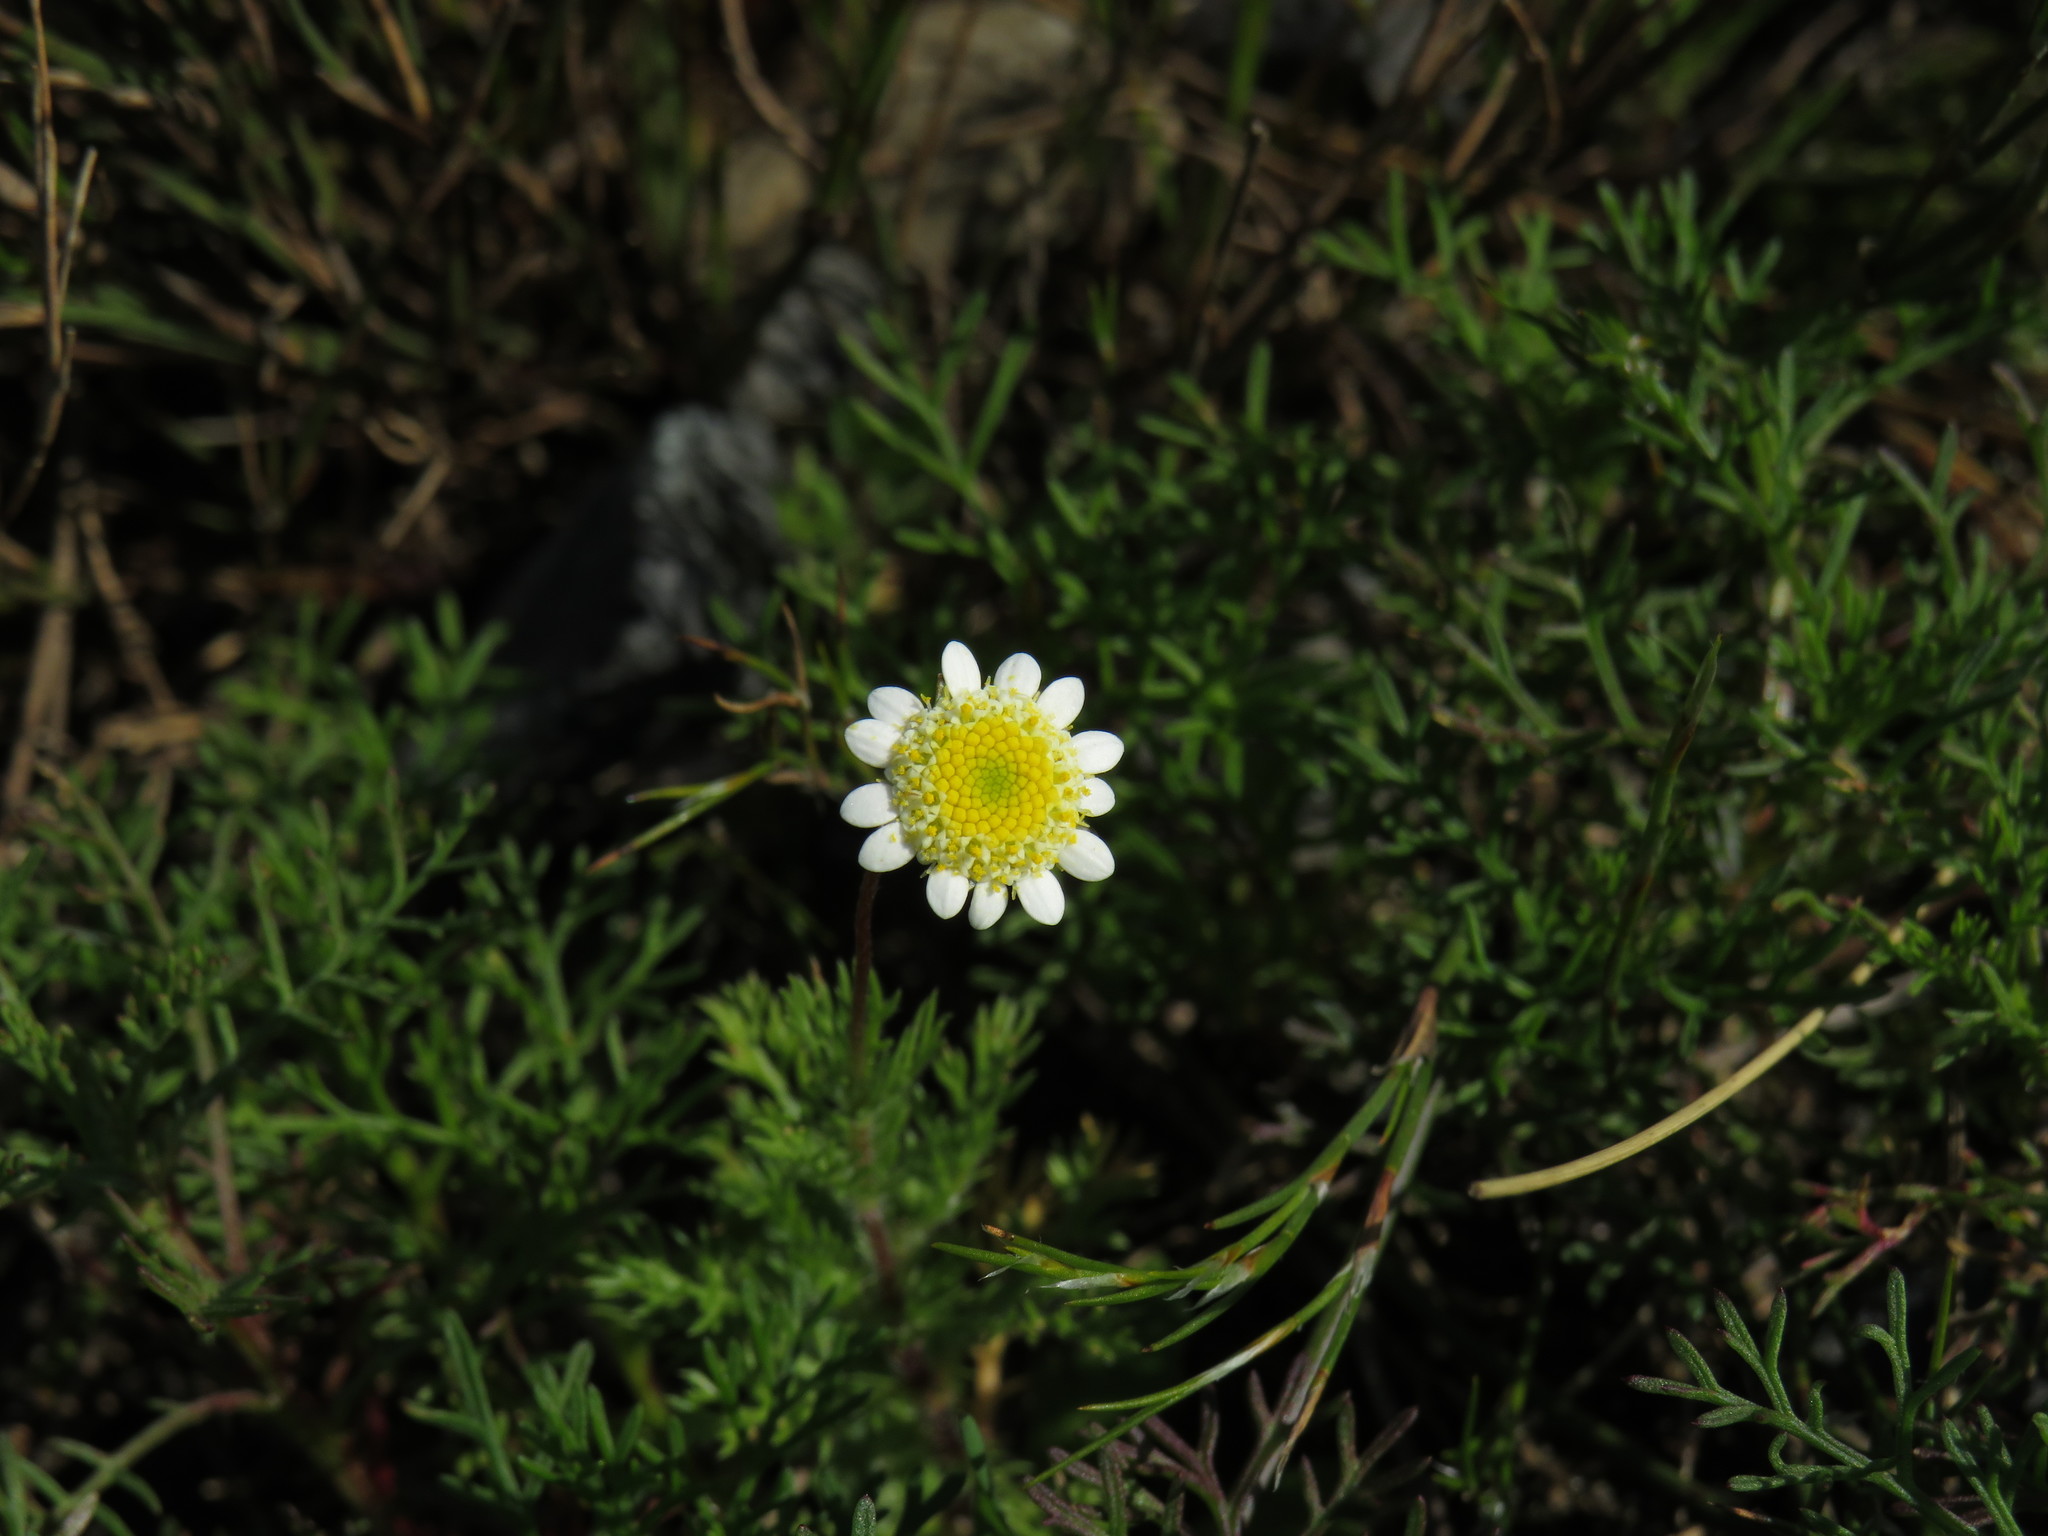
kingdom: Plantae
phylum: Tracheophyta
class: Magnoliopsida
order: Asterales
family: Asteraceae
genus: Cotula
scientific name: Cotula turbinata
